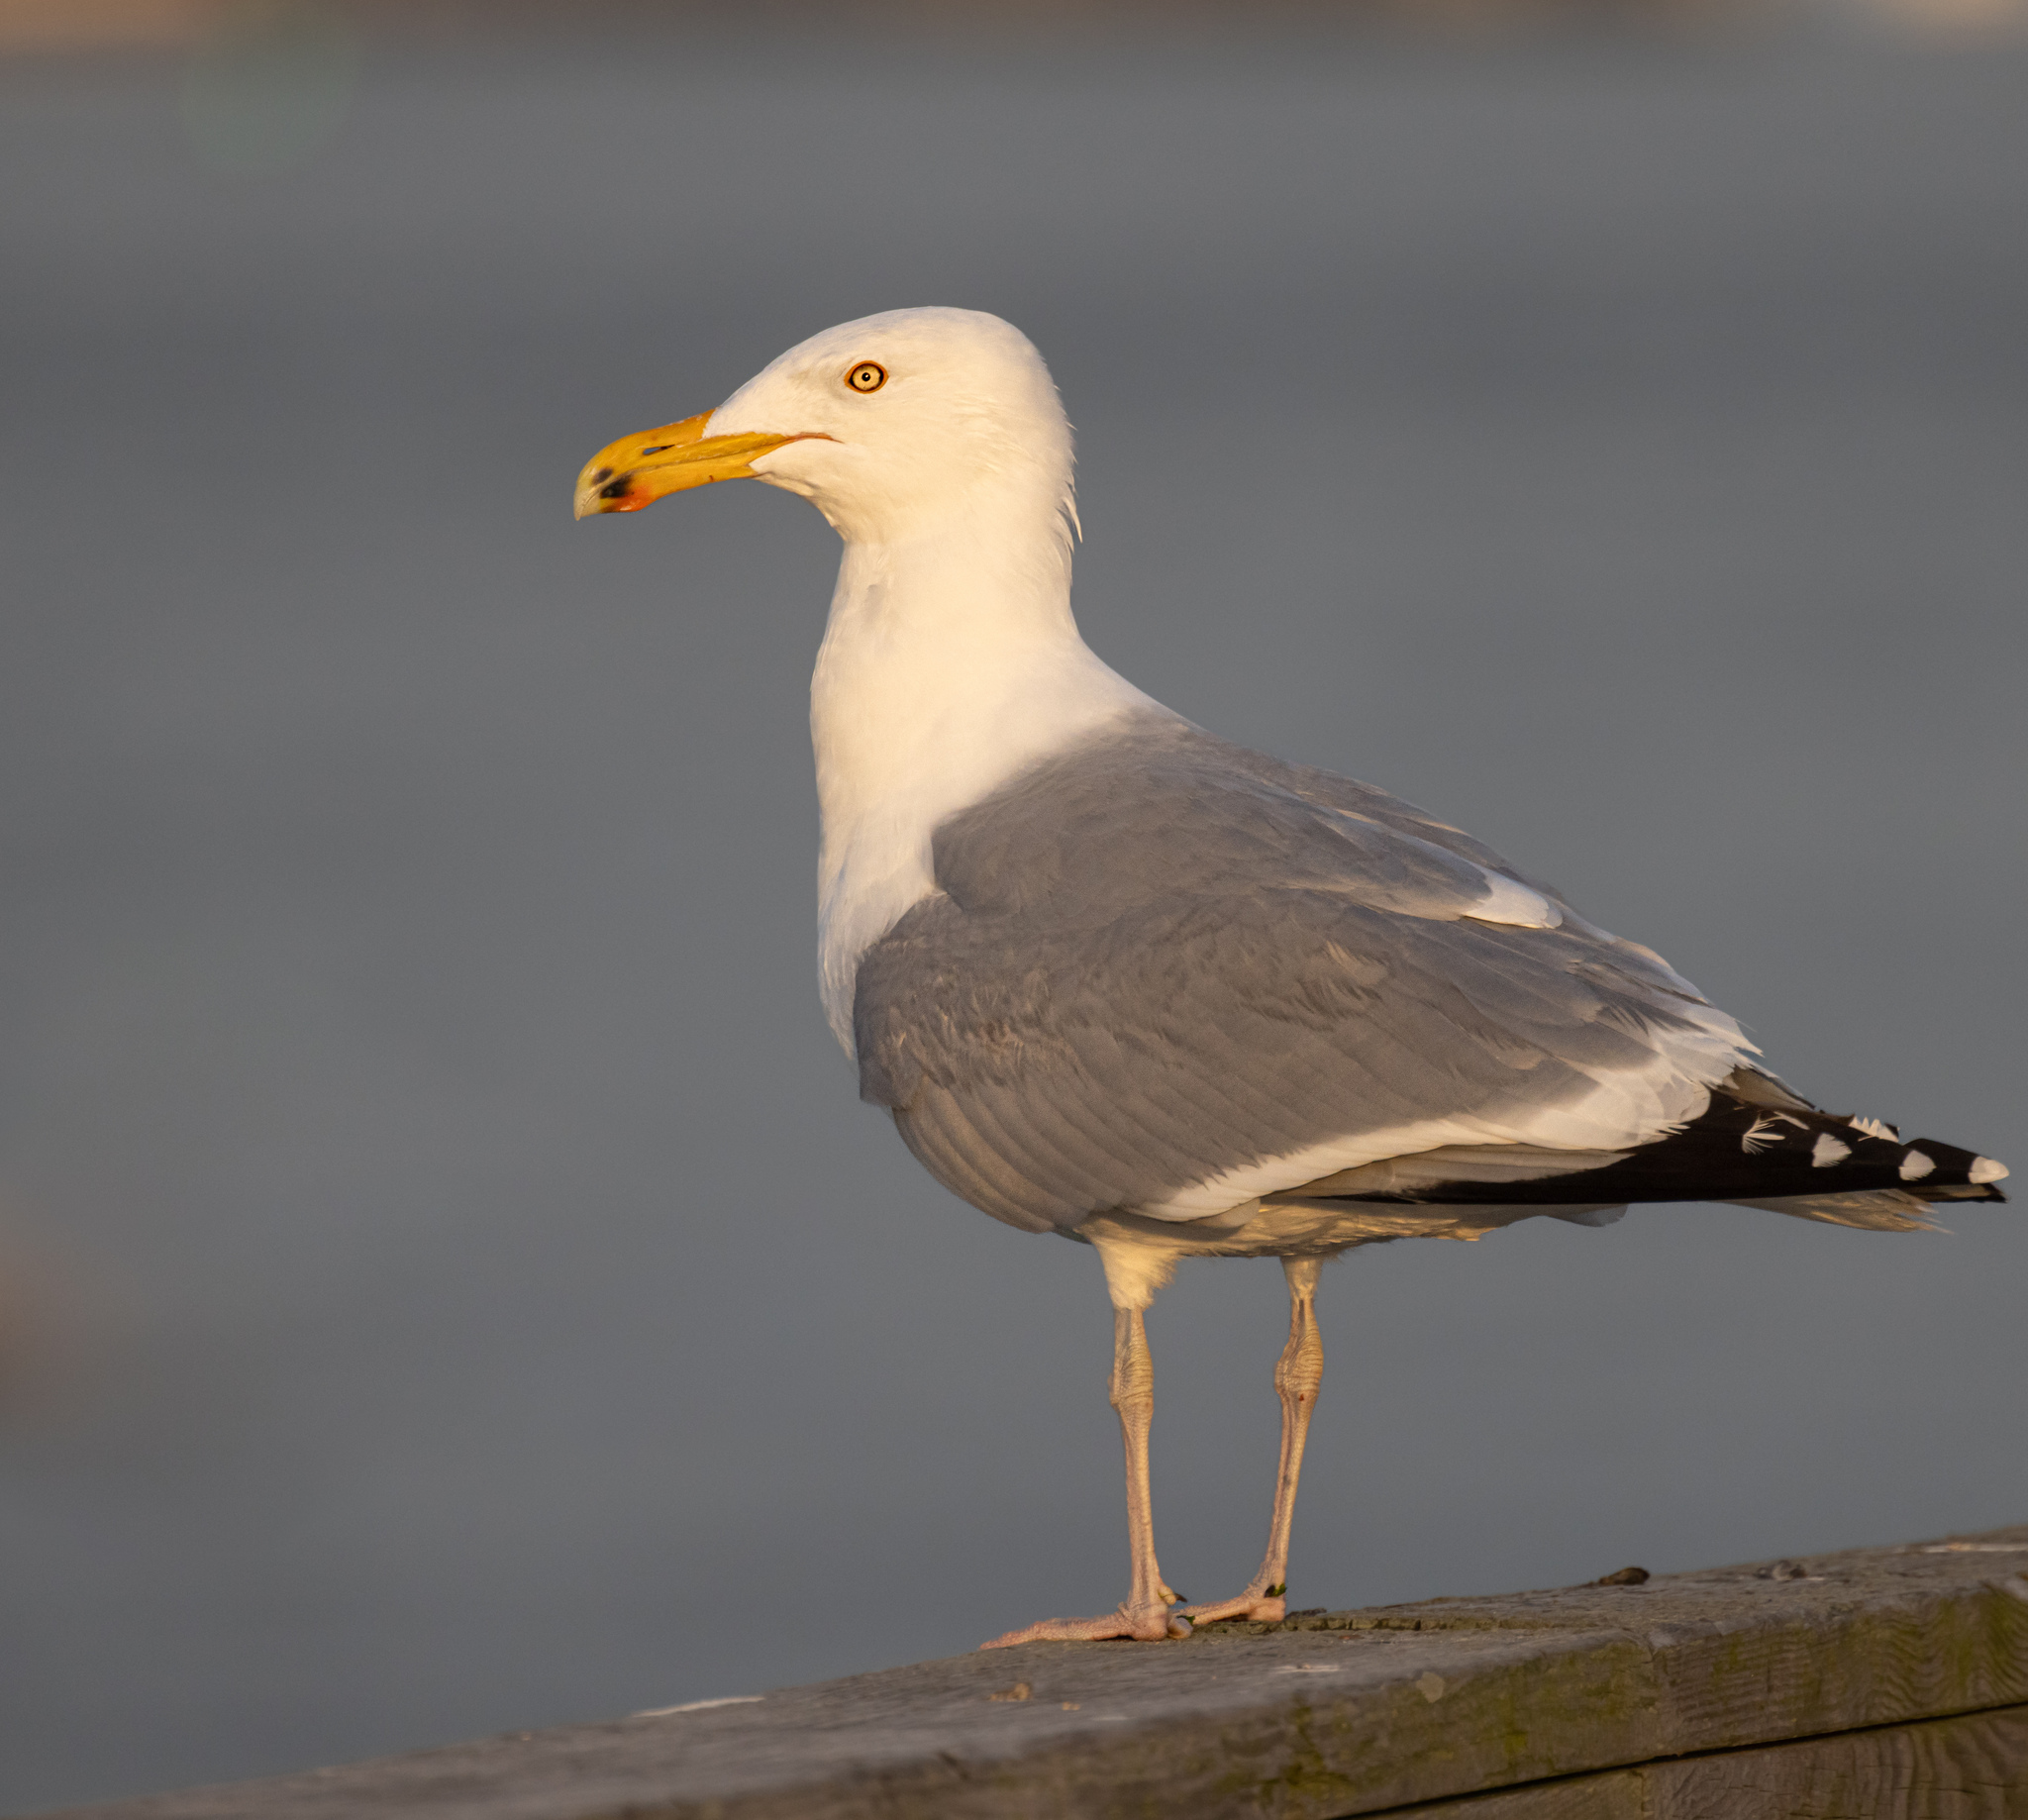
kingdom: Animalia
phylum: Chordata
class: Aves
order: Charadriiformes
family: Laridae
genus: Larus
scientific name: Larus argentatus
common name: Herring gull
